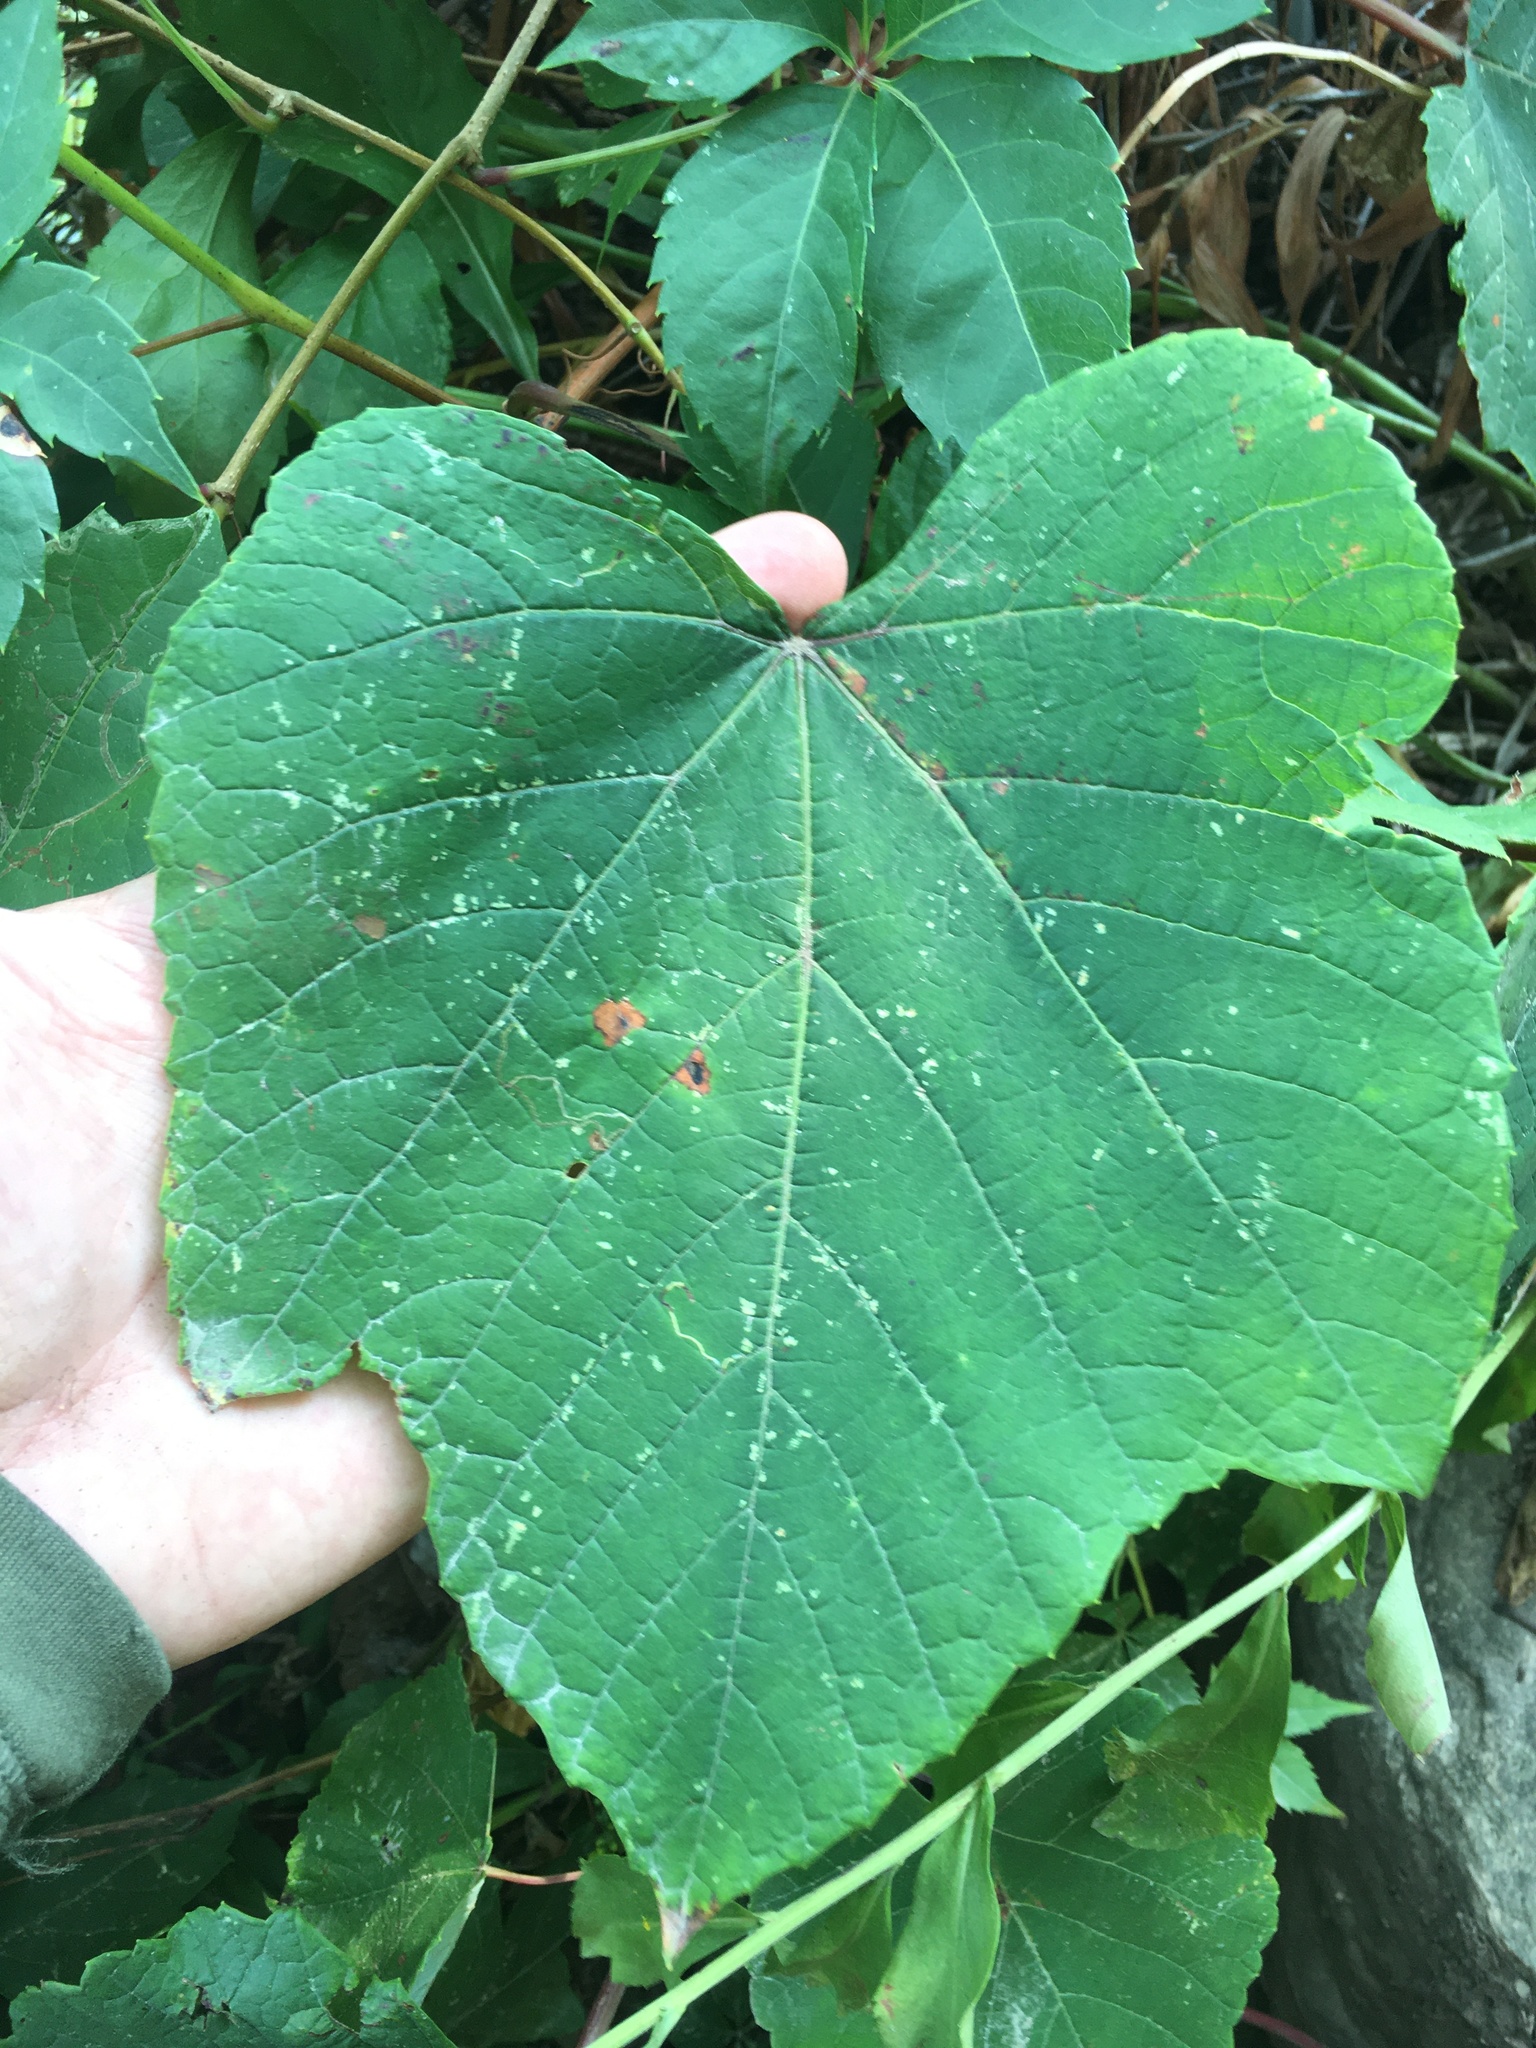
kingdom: Plantae
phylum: Tracheophyta
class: Magnoliopsida
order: Vitales
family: Vitaceae
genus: Vitis
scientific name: Vitis aestivalis
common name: Pigeon grape
